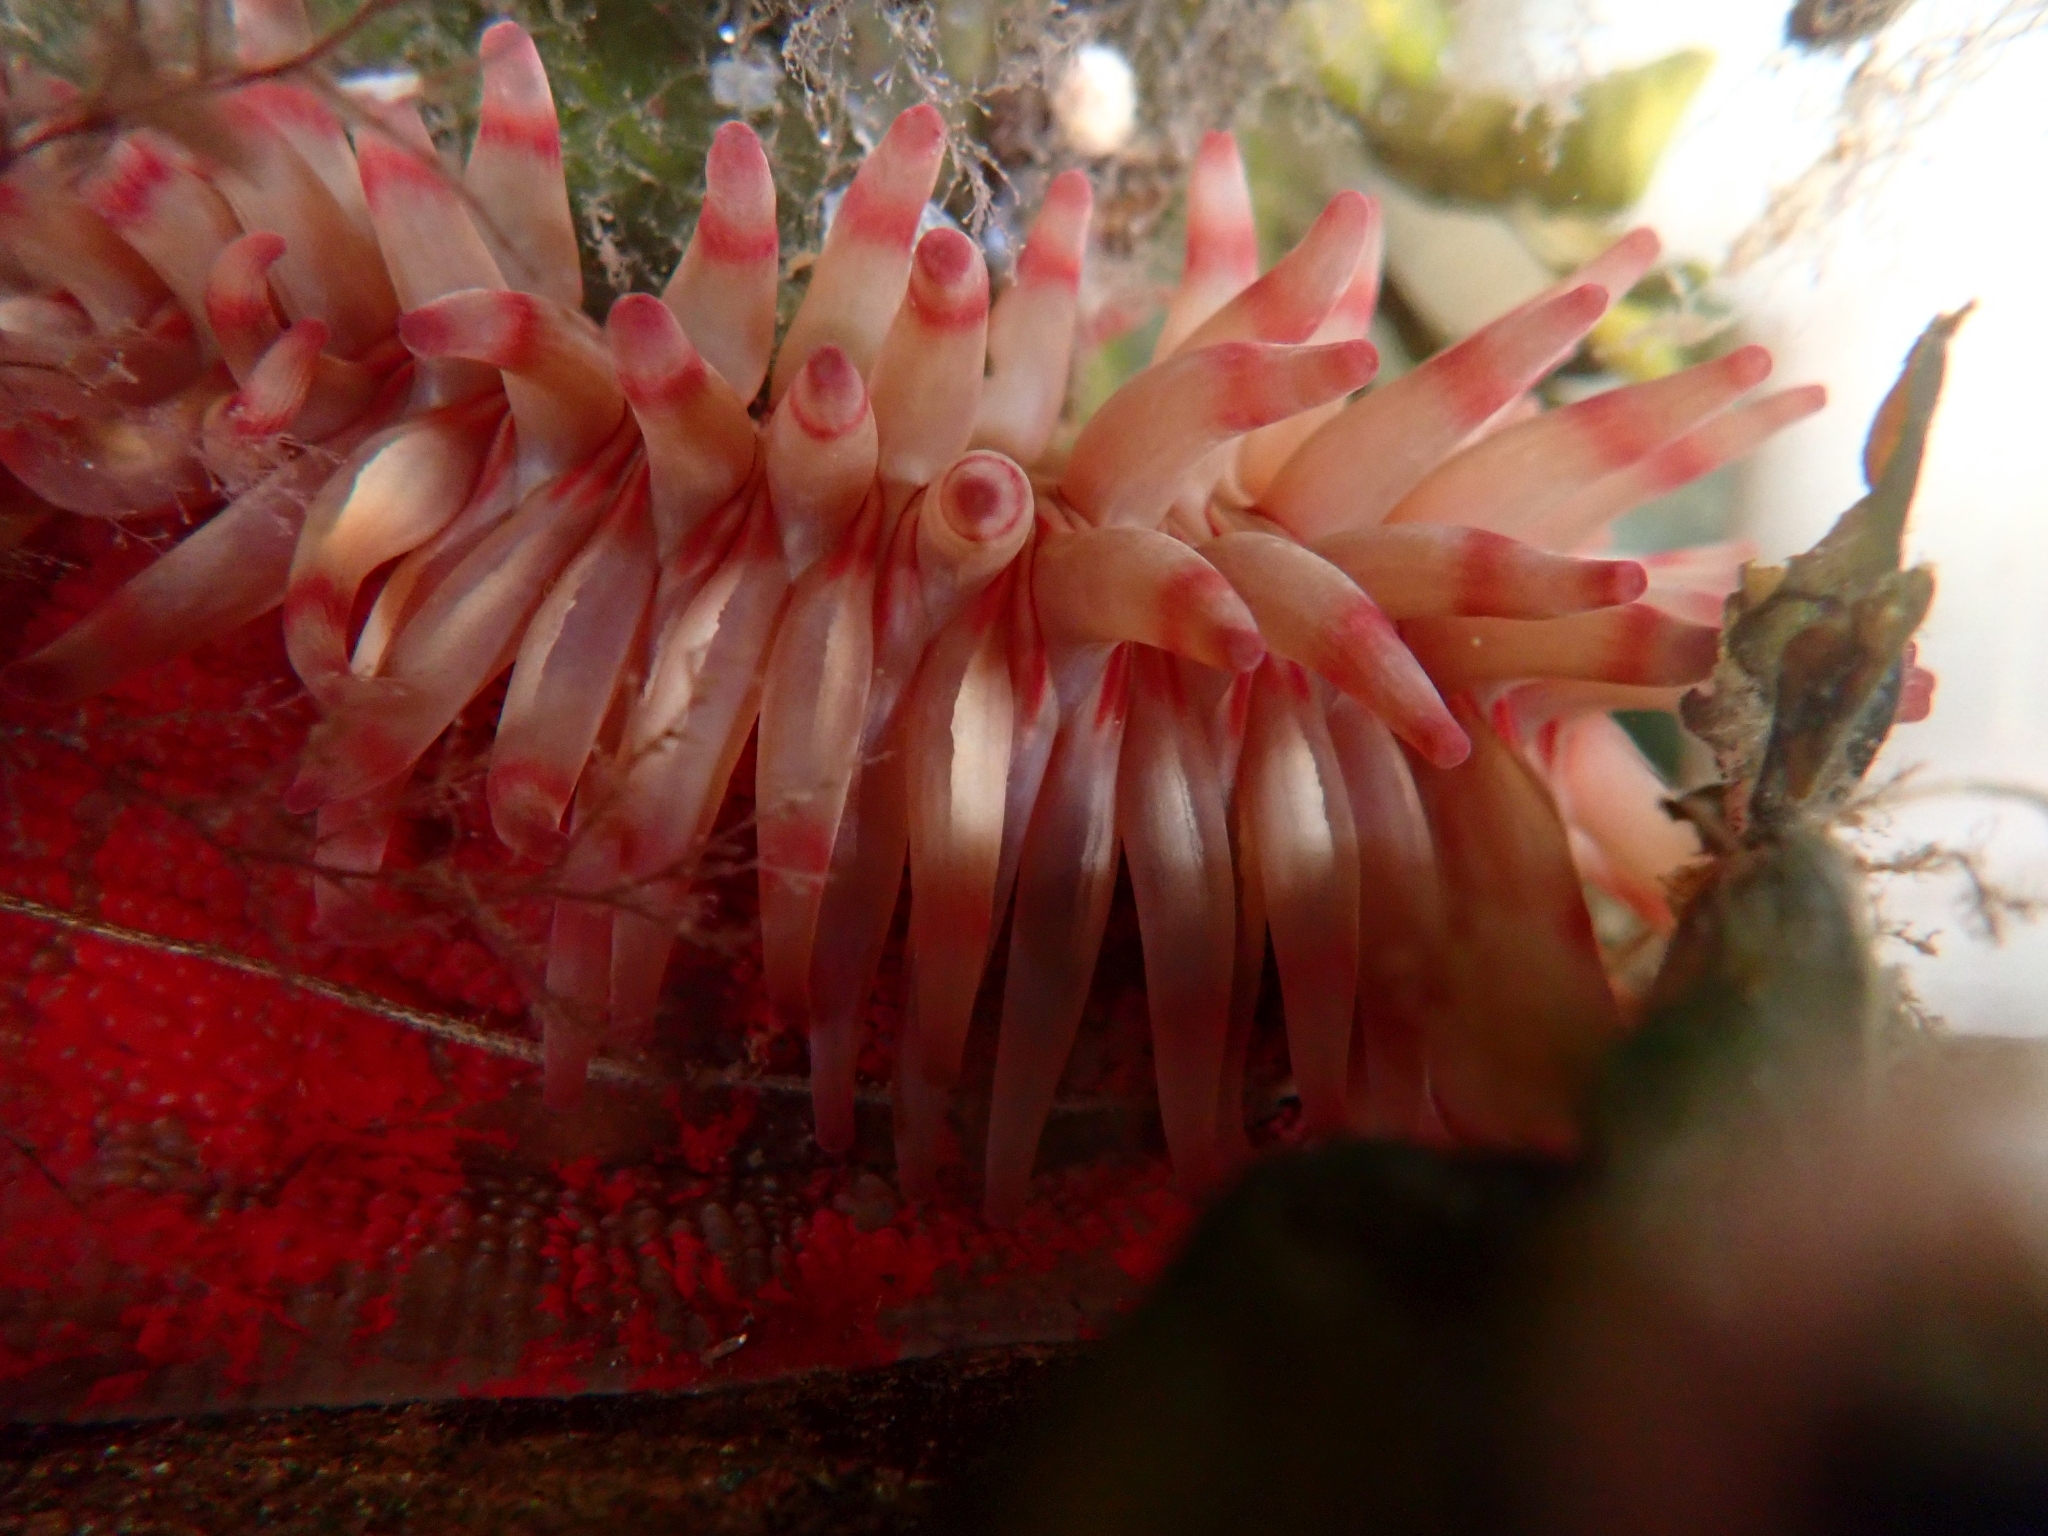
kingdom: Animalia
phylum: Cnidaria
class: Anthozoa
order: Actiniaria
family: Actiniidae
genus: Urticina
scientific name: Urticina grebelnyi
